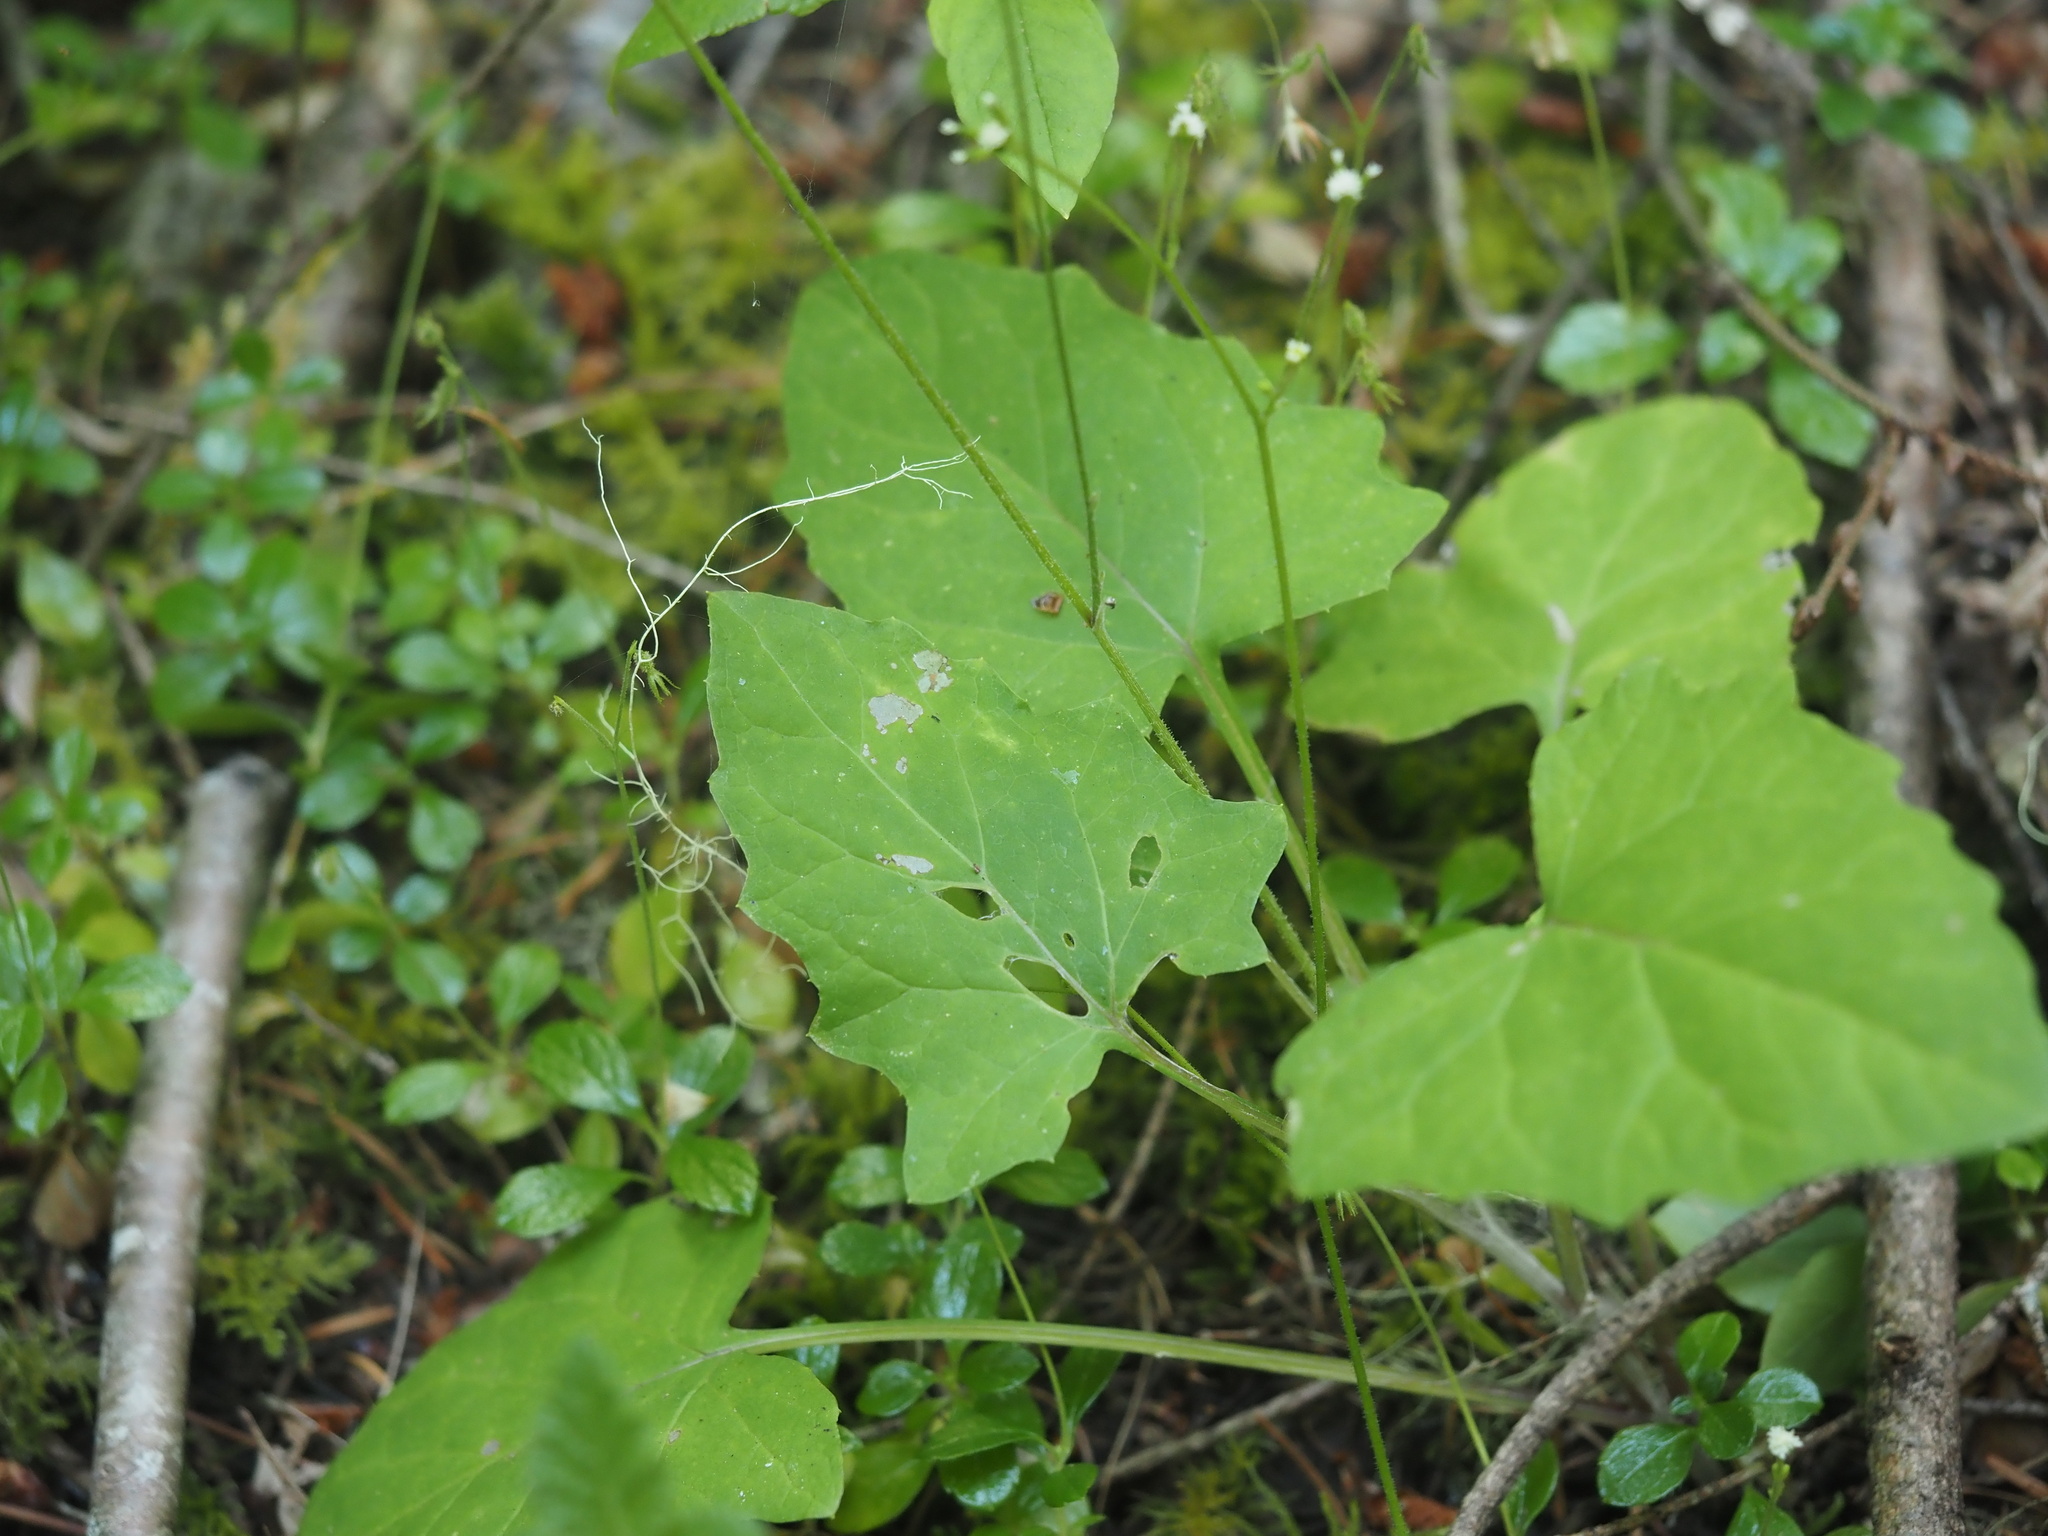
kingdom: Plantae
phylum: Tracheophyta
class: Magnoliopsida
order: Asterales
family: Asteraceae
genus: Adenocaulon
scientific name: Adenocaulon bicolor
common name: Trailplant
